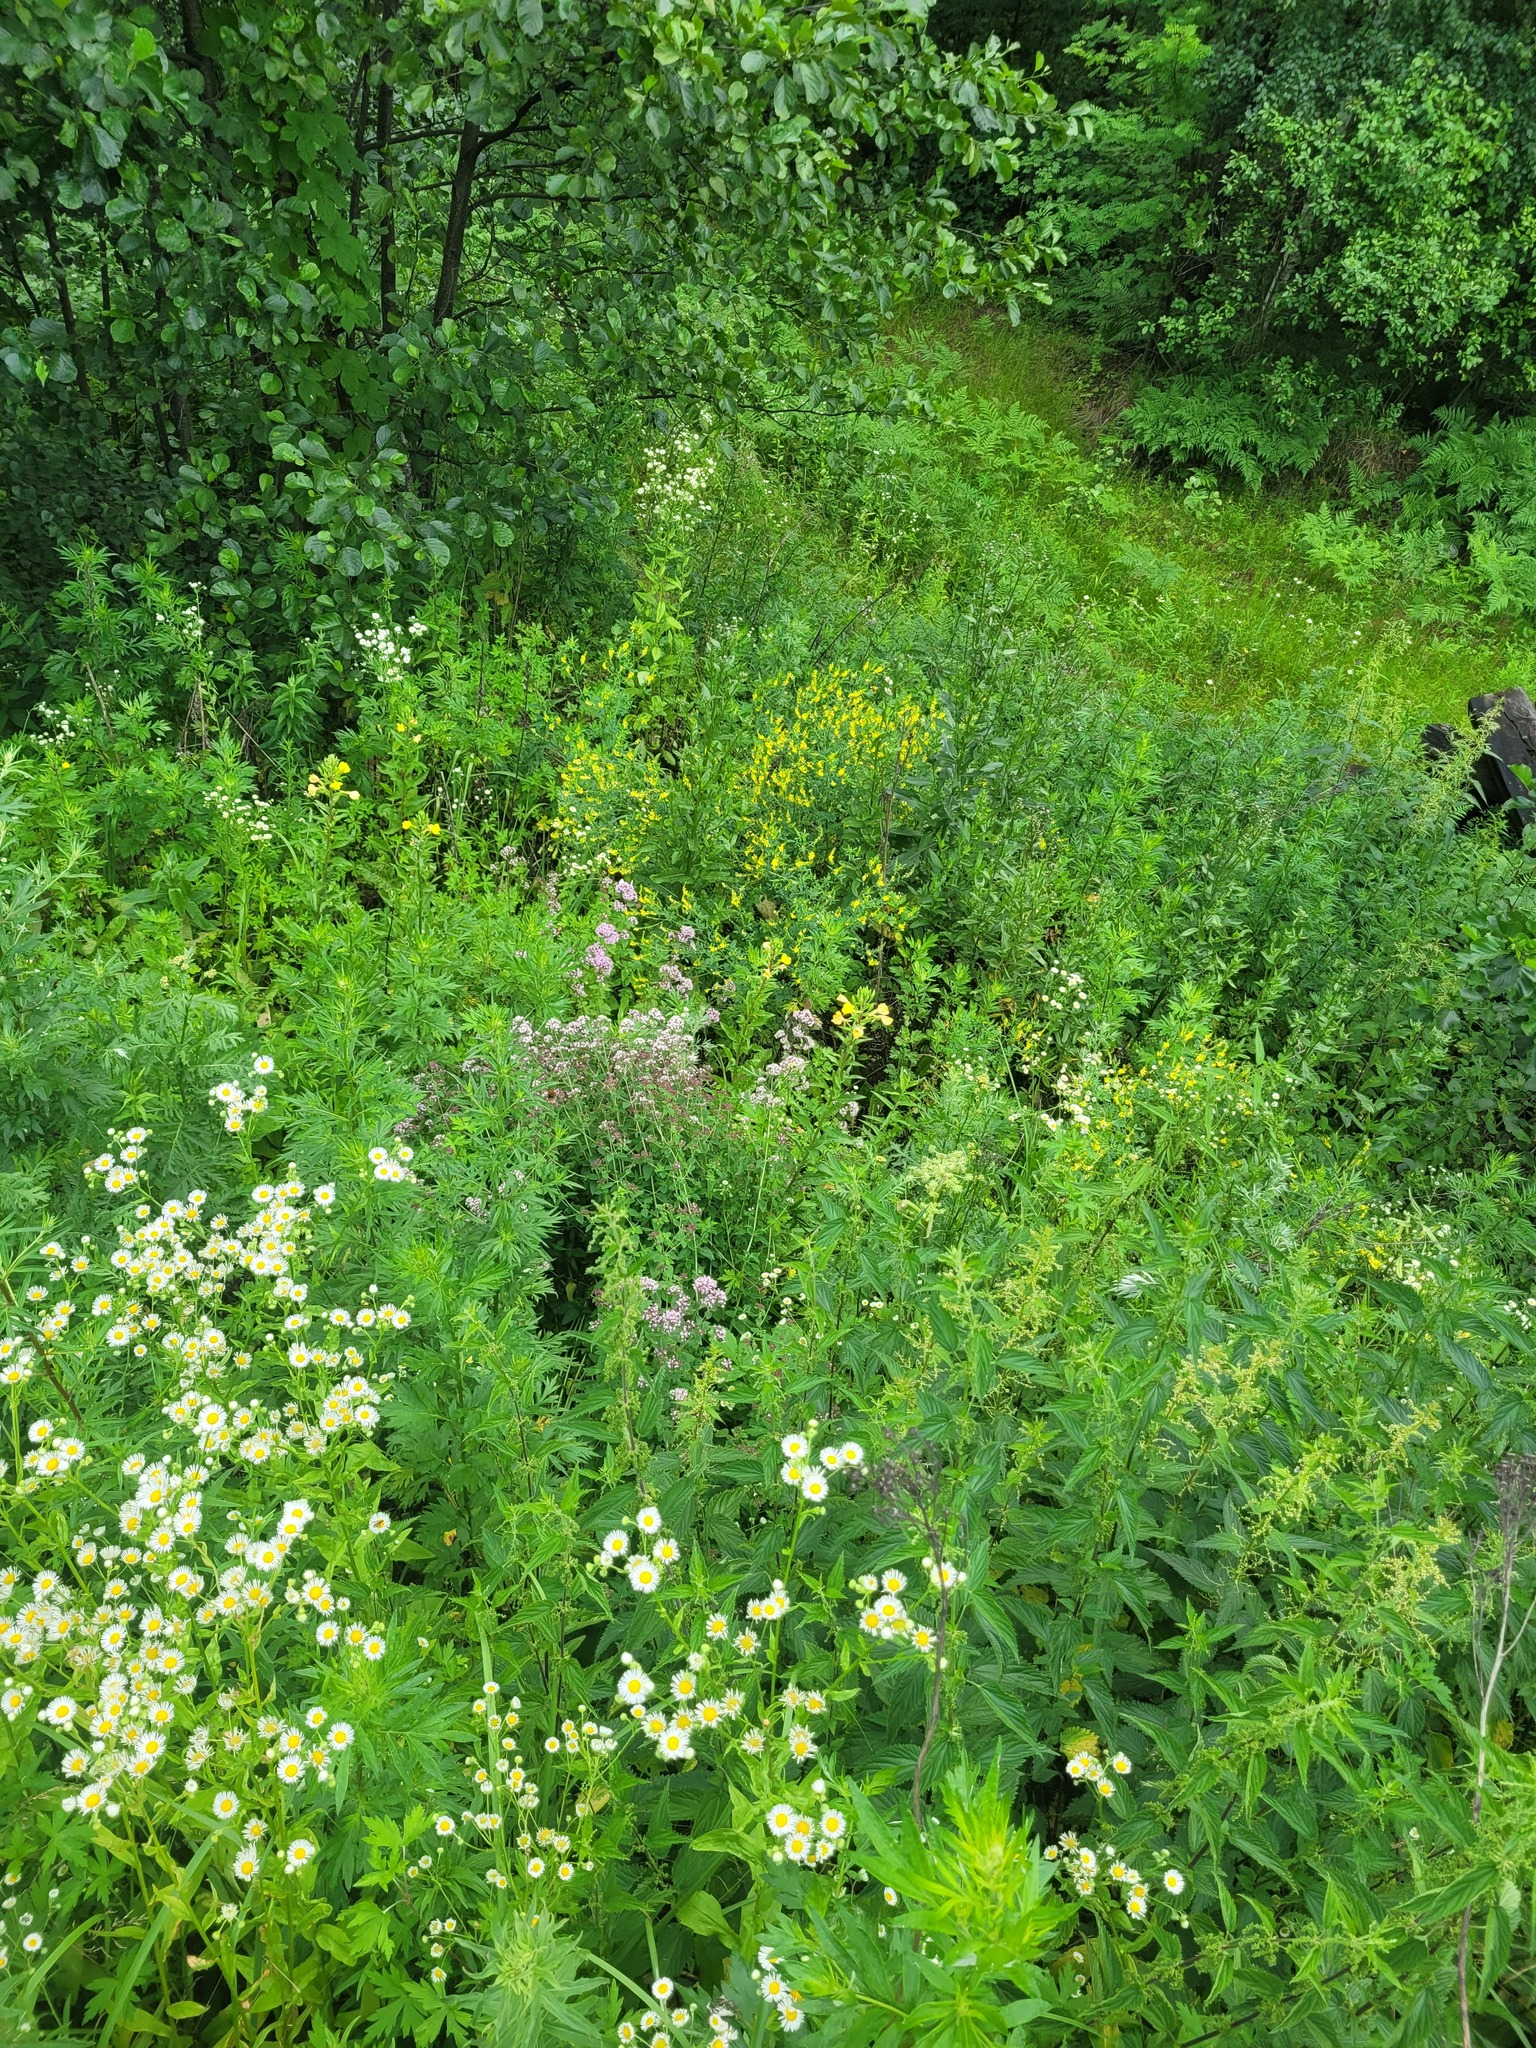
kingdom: Plantae
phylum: Tracheophyta
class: Magnoliopsida
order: Lamiales
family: Lamiaceae
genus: Origanum
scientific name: Origanum vulgare
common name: Wild marjoram
